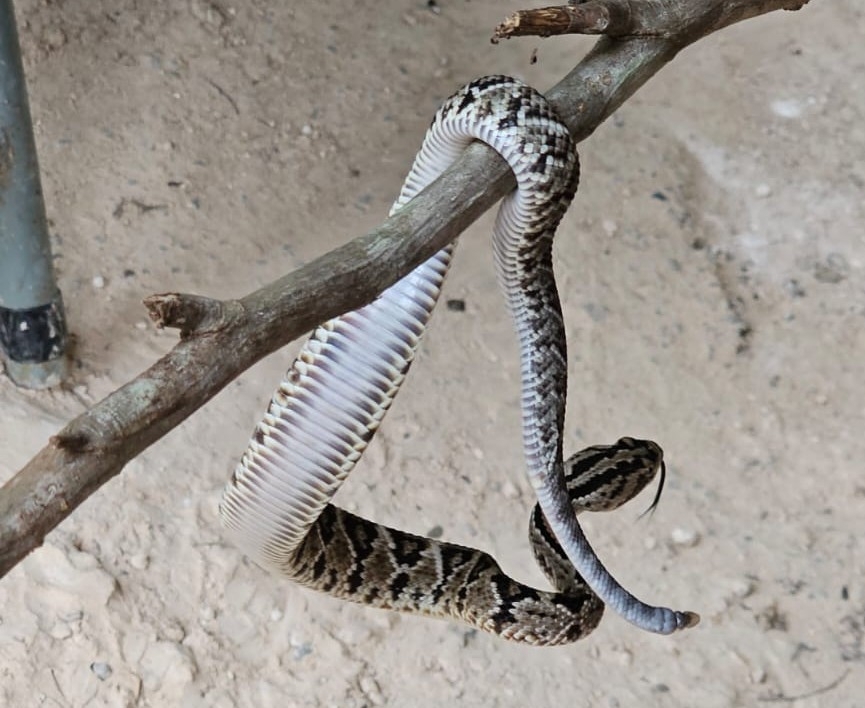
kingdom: Animalia
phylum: Chordata
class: Squamata
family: Viperidae
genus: Crotalus
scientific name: Crotalus tzabcan
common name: Yucatan neotropical rattlesnake
